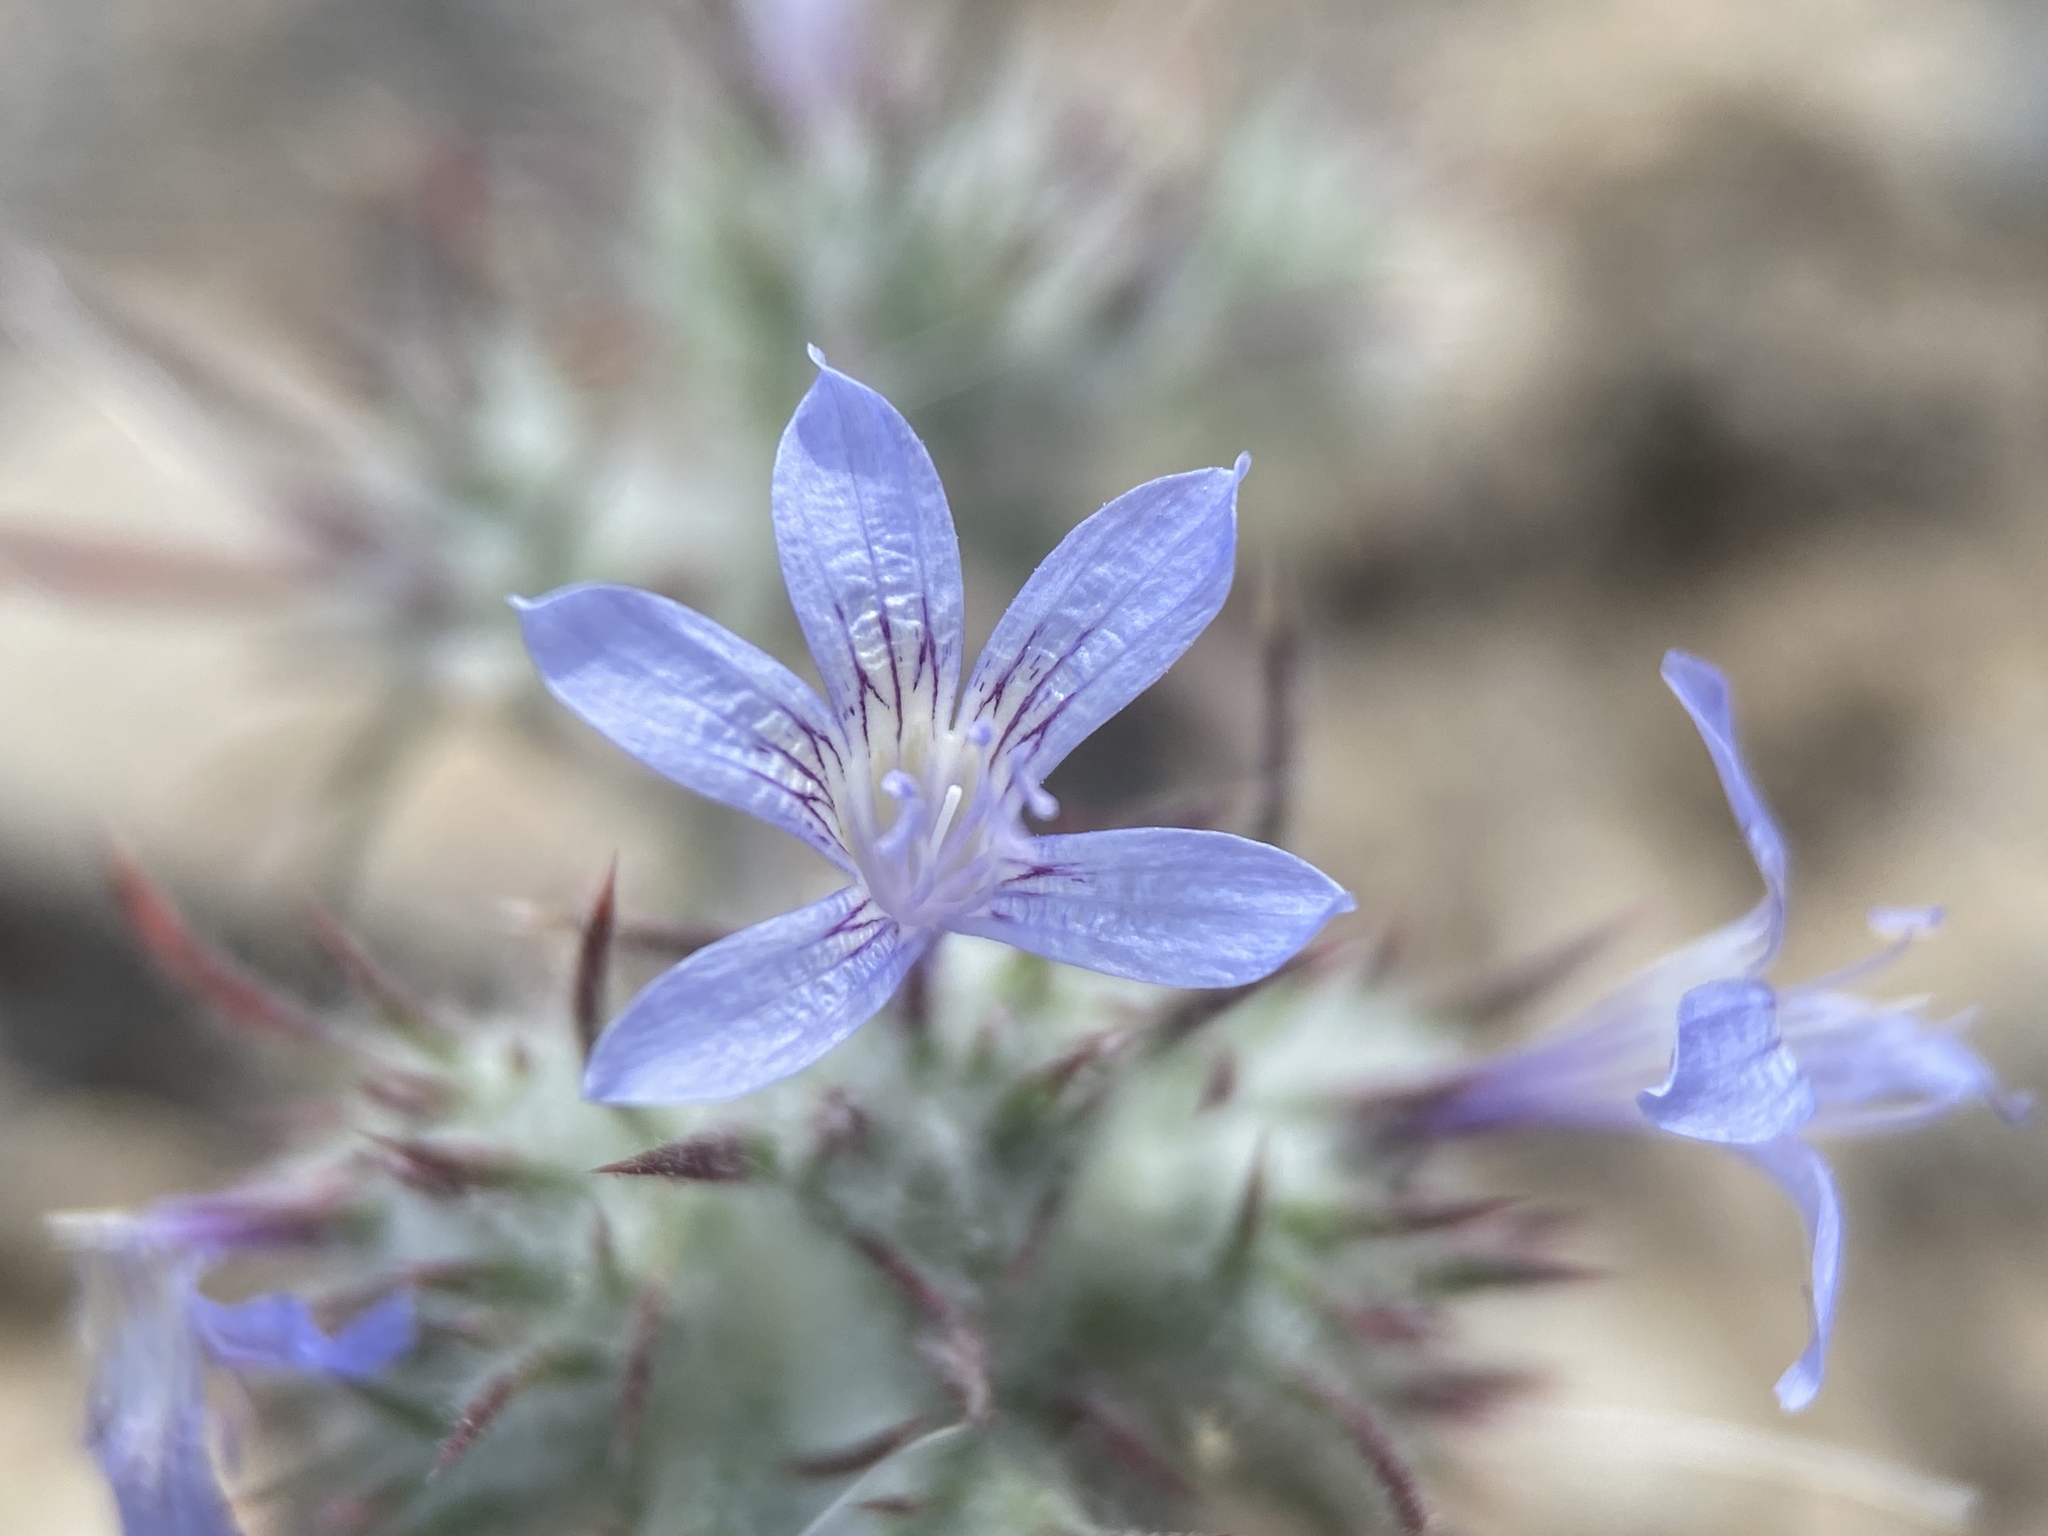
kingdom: Plantae
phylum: Tracheophyta
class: Magnoliopsida
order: Ericales
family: Polemoniaceae
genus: Eriastrum
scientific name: Eriastrum eremicum
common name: Desert eriastrum
